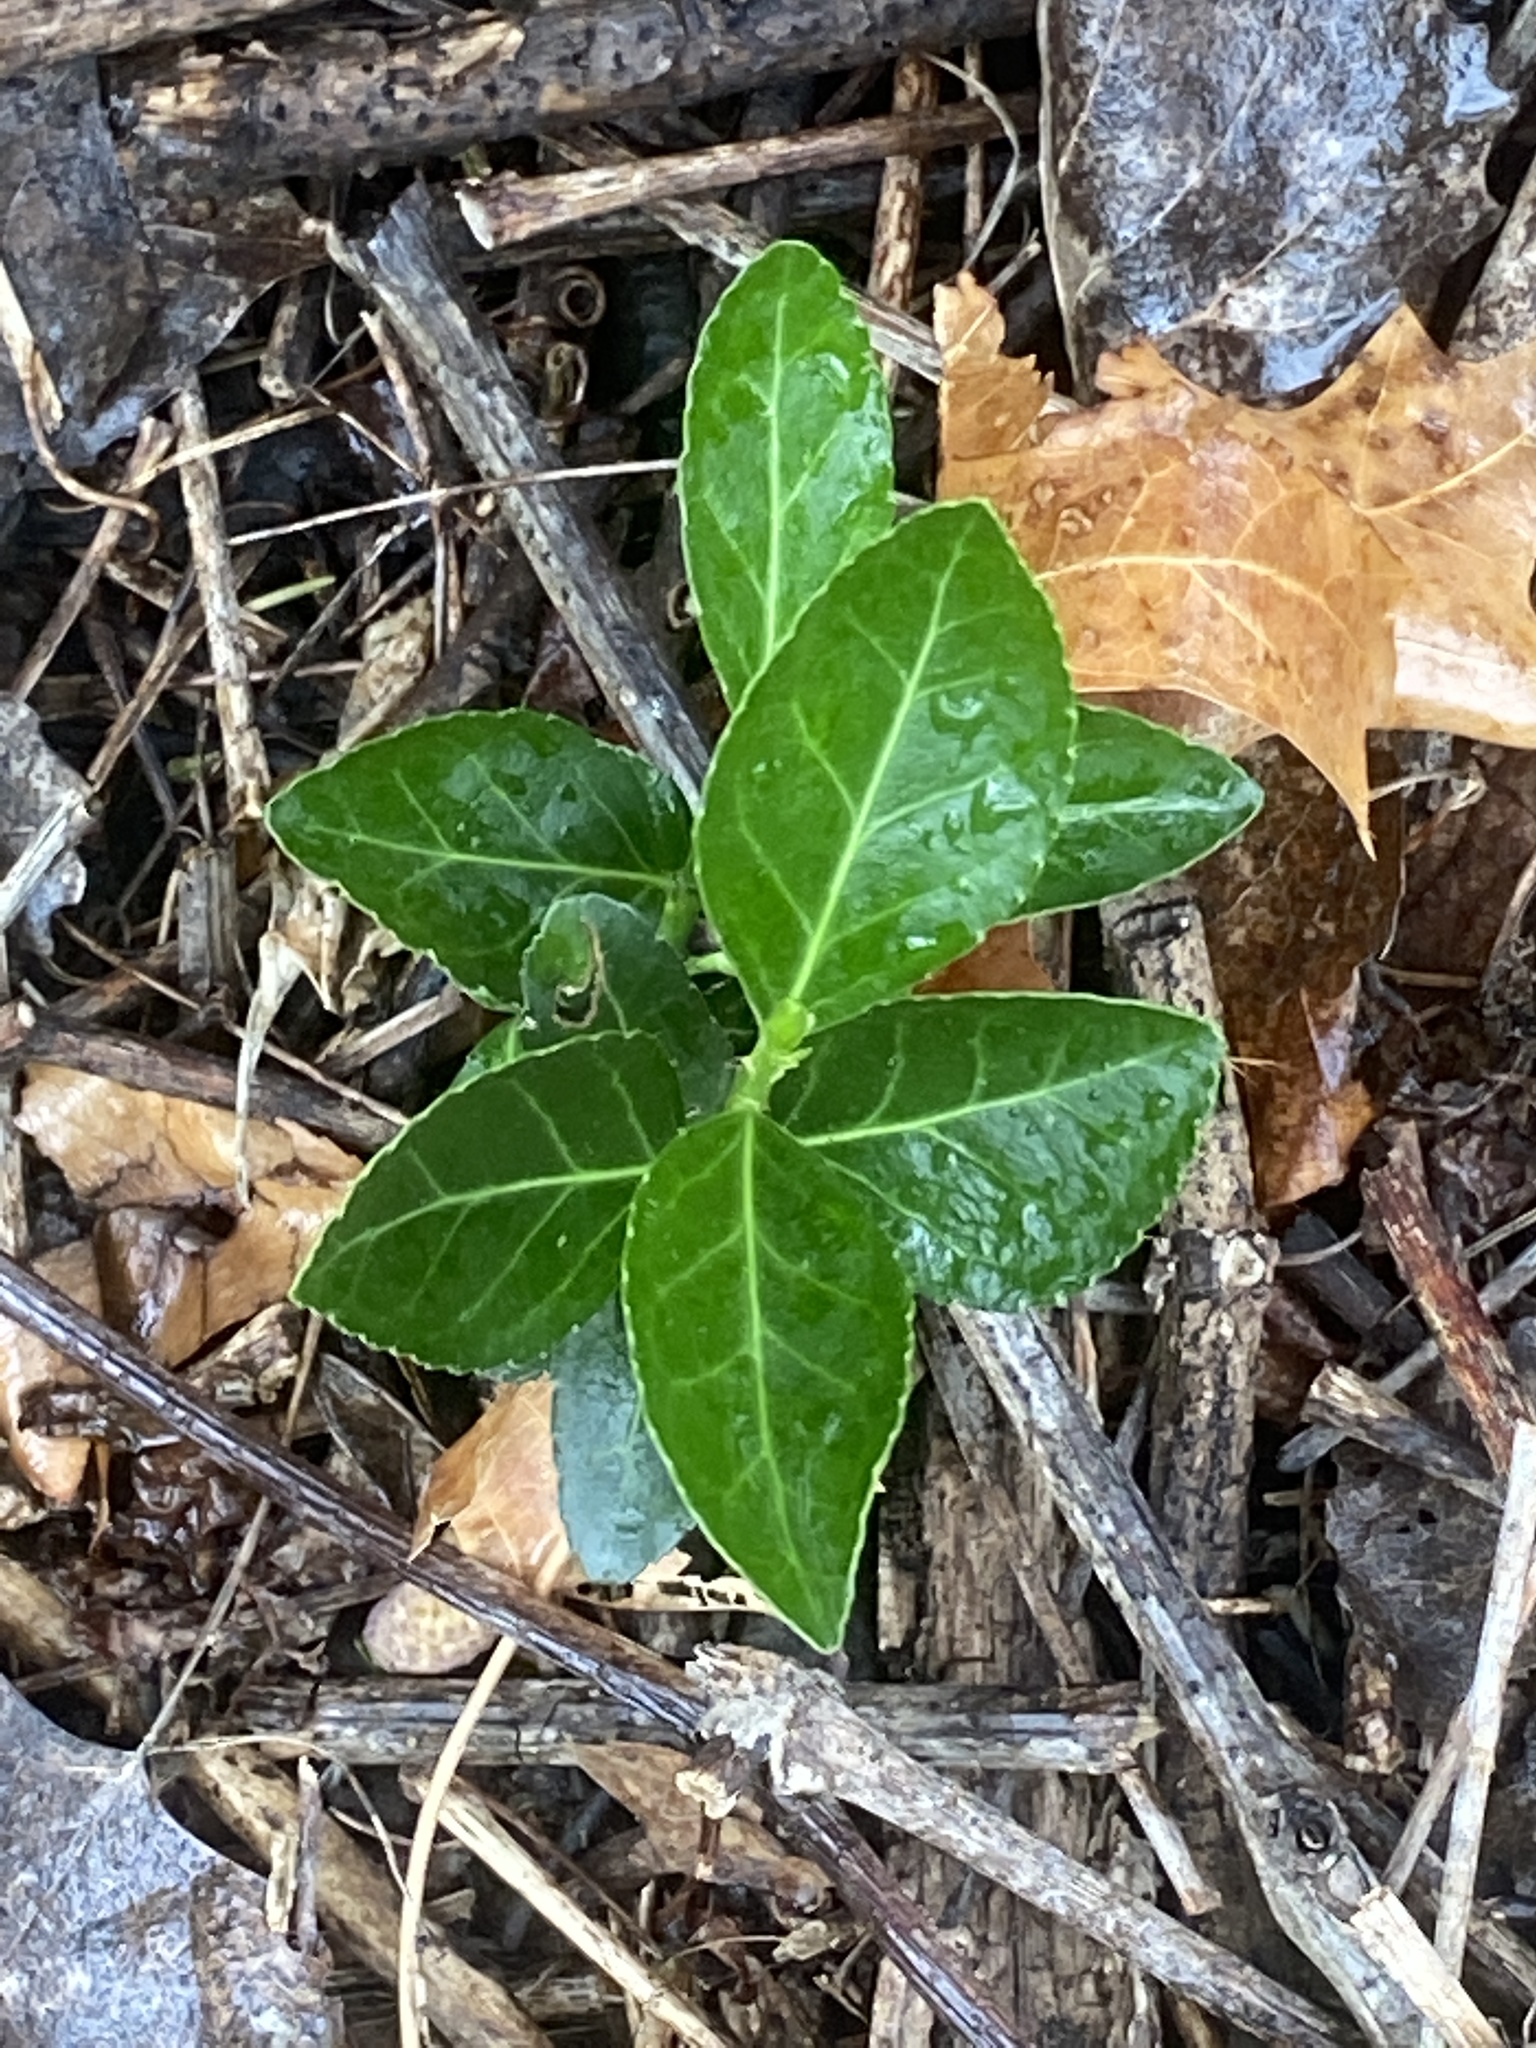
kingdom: Plantae
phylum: Tracheophyta
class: Magnoliopsida
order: Celastrales
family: Celastraceae
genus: Euonymus
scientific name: Euonymus fortunei
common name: Climbing euonymus
